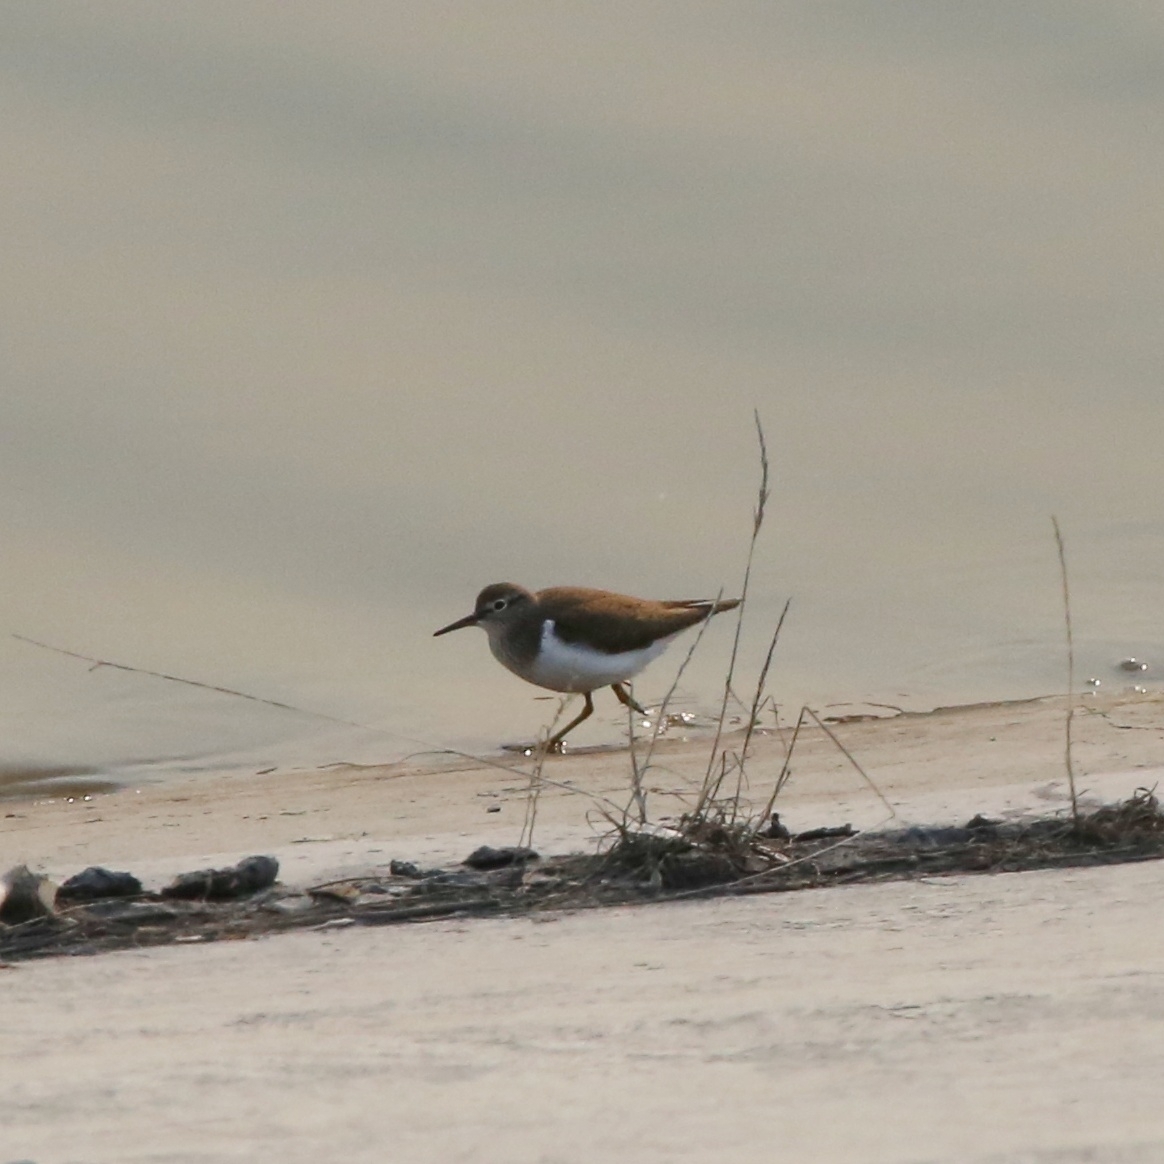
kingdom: Animalia
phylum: Chordata
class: Aves
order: Charadriiformes
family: Scolopacidae
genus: Actitis
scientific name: Actitis hypoleucos
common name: Common sandpiper
